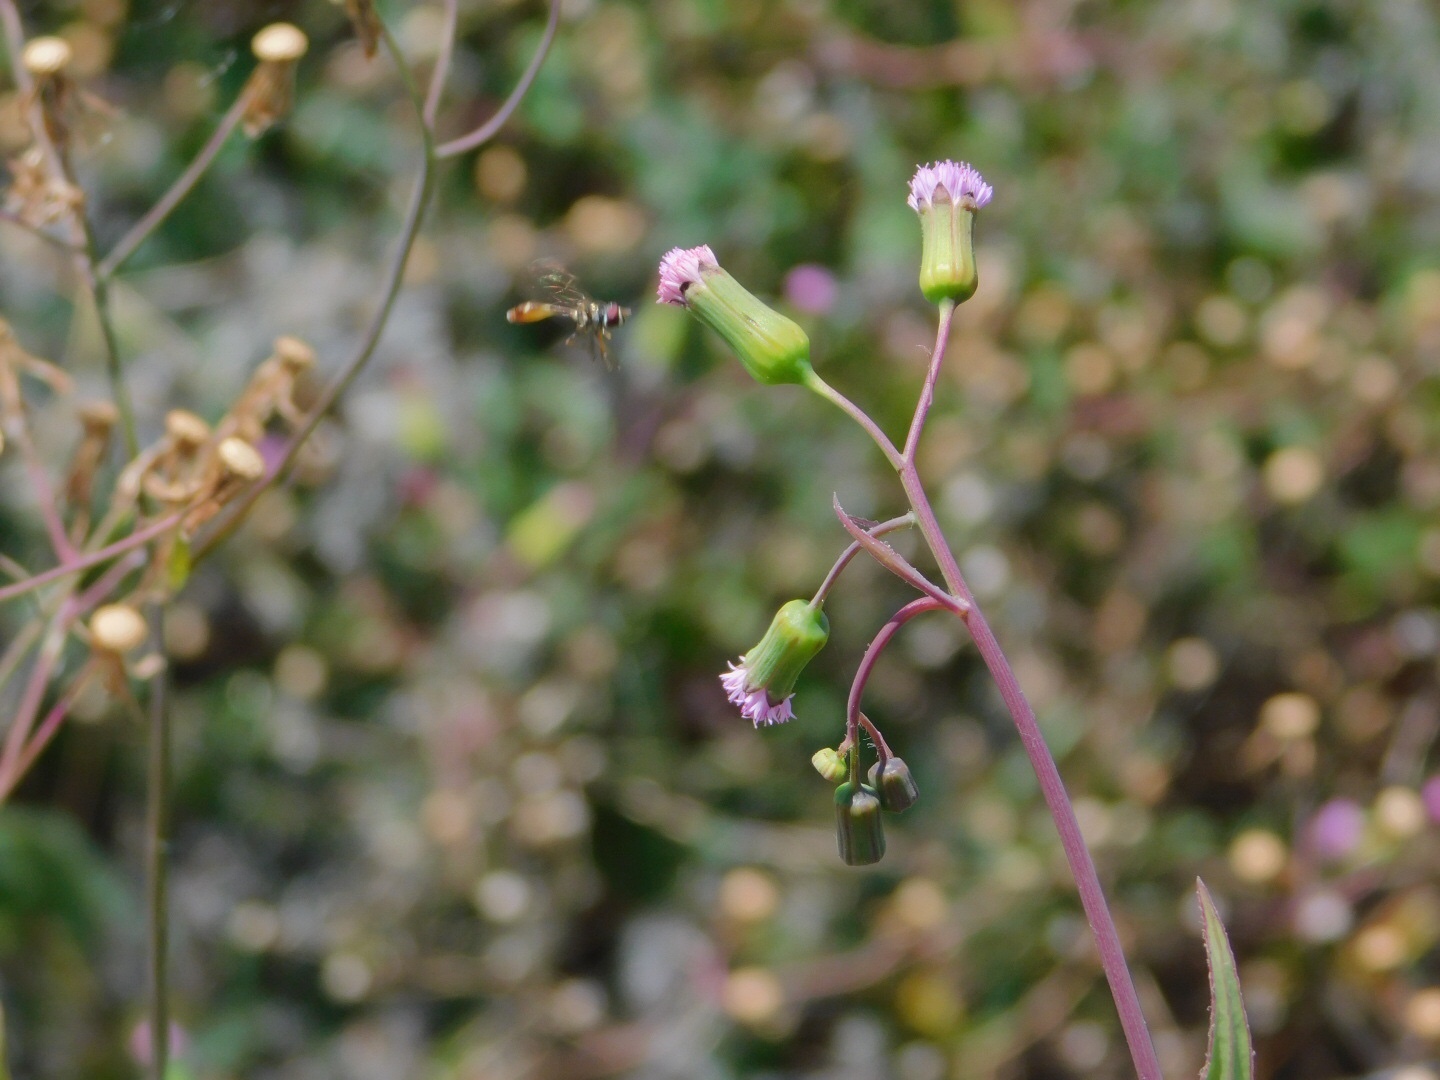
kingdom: Animalia
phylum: Arthropoda
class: Insecta
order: Diptera
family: Syrphidae
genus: Dioprosopa
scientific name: Dioprosopa clavatus
